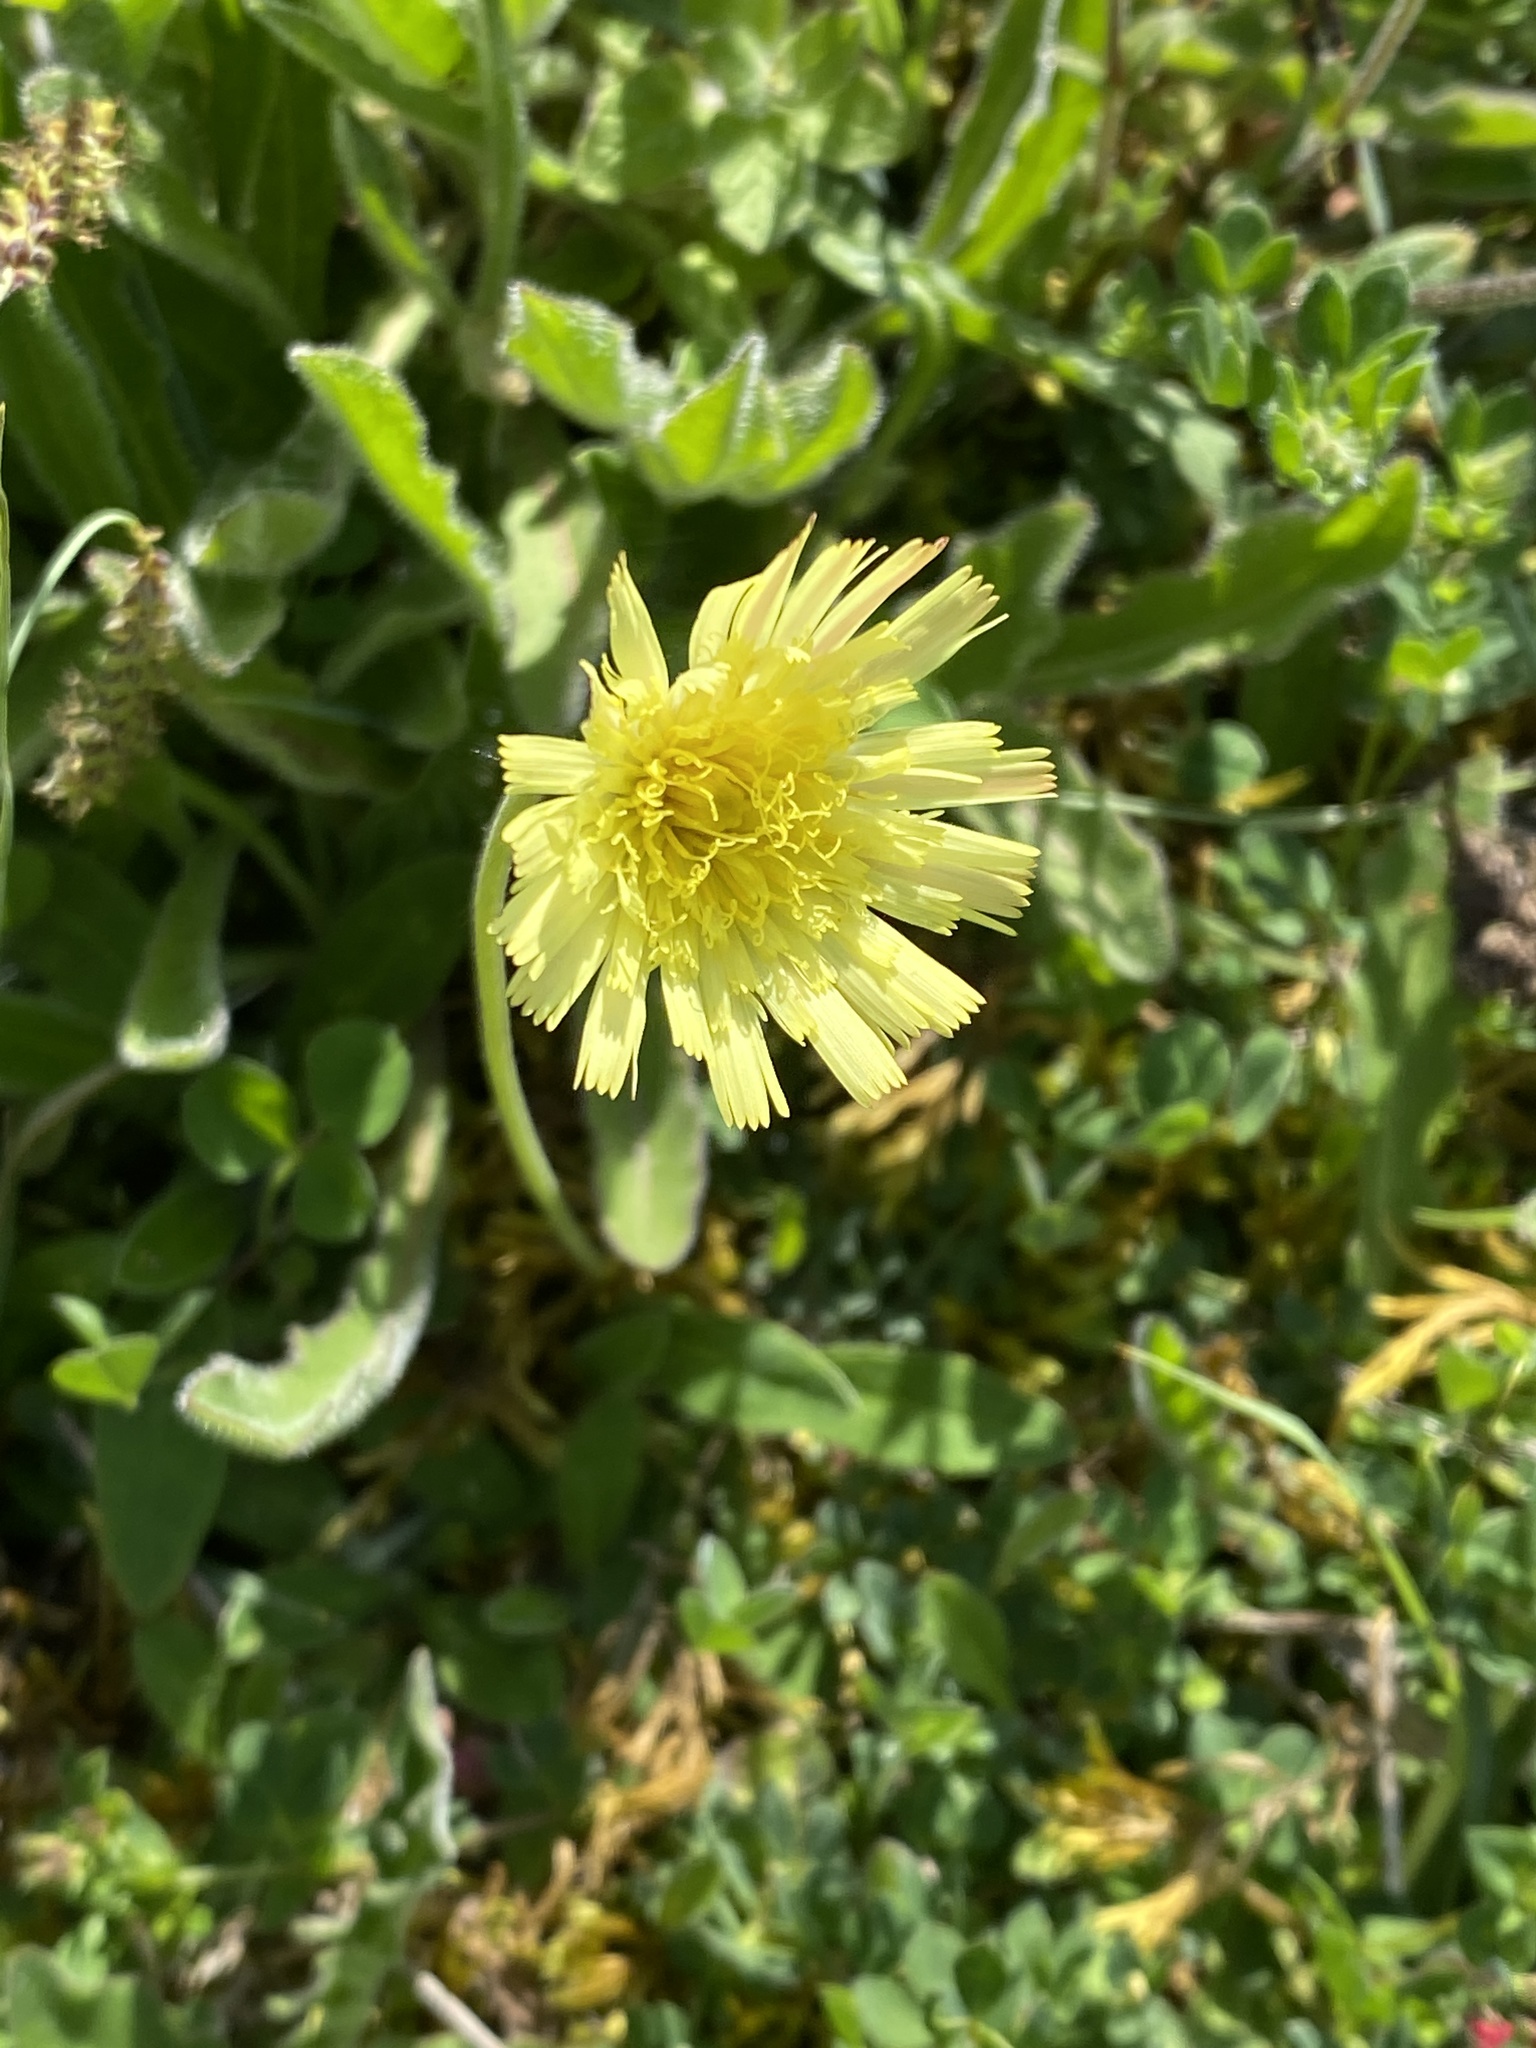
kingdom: Plantae
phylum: Tracheophyta
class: Magnoliopsida
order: Asterales
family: Asteraceae
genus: Pilosella
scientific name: Pilosella officinarum
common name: Mouse-ear hawkweed
